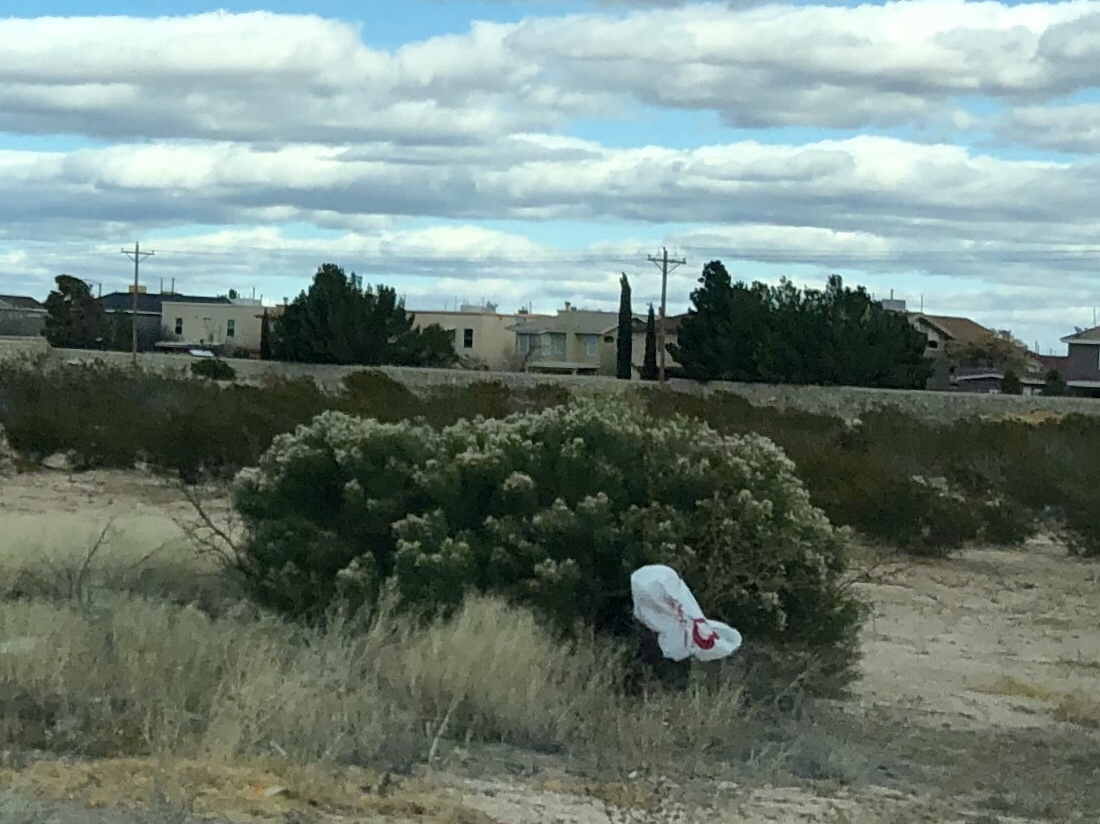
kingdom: Plantae
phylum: Tracheophyta
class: Magnoliopsida
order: Asterales
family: Asteraceae
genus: Baccharis
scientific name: Baccharis sarothroides
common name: Desert-broom
